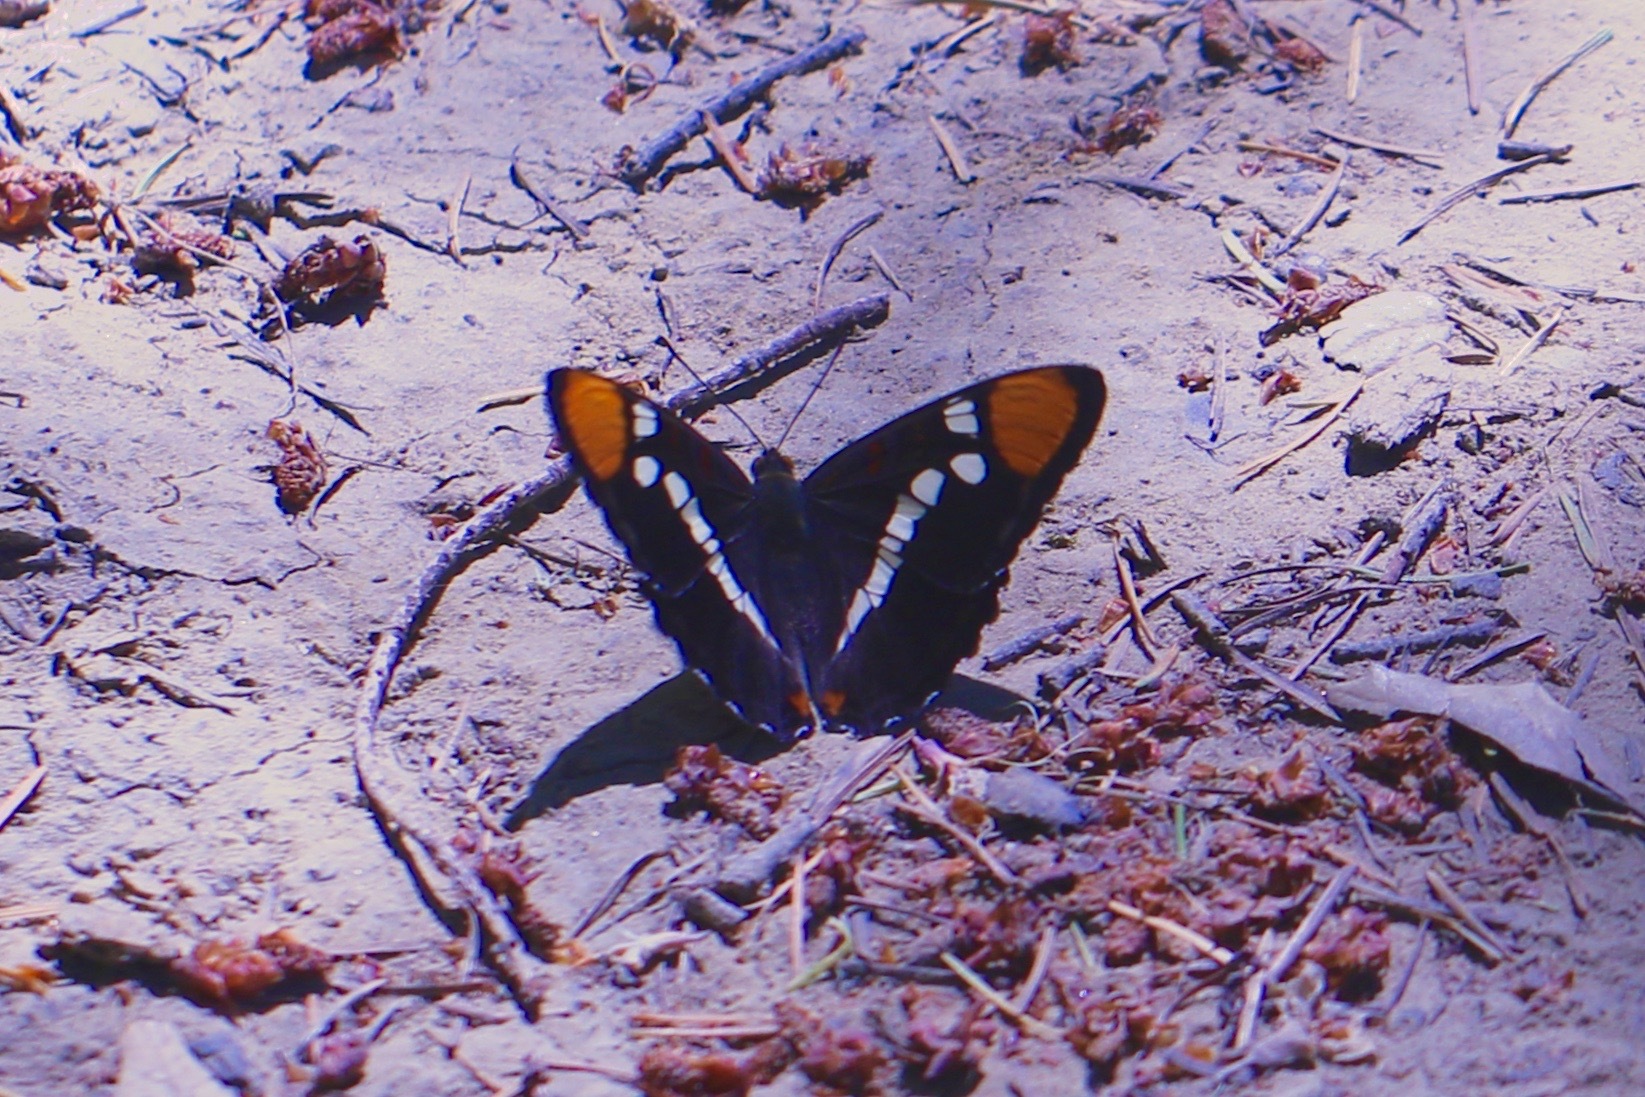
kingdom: Animalia
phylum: Arthropoda
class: Insecta
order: Lepidoptera
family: Nymphalidae
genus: Limenitis
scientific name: Limenitis bredowii
